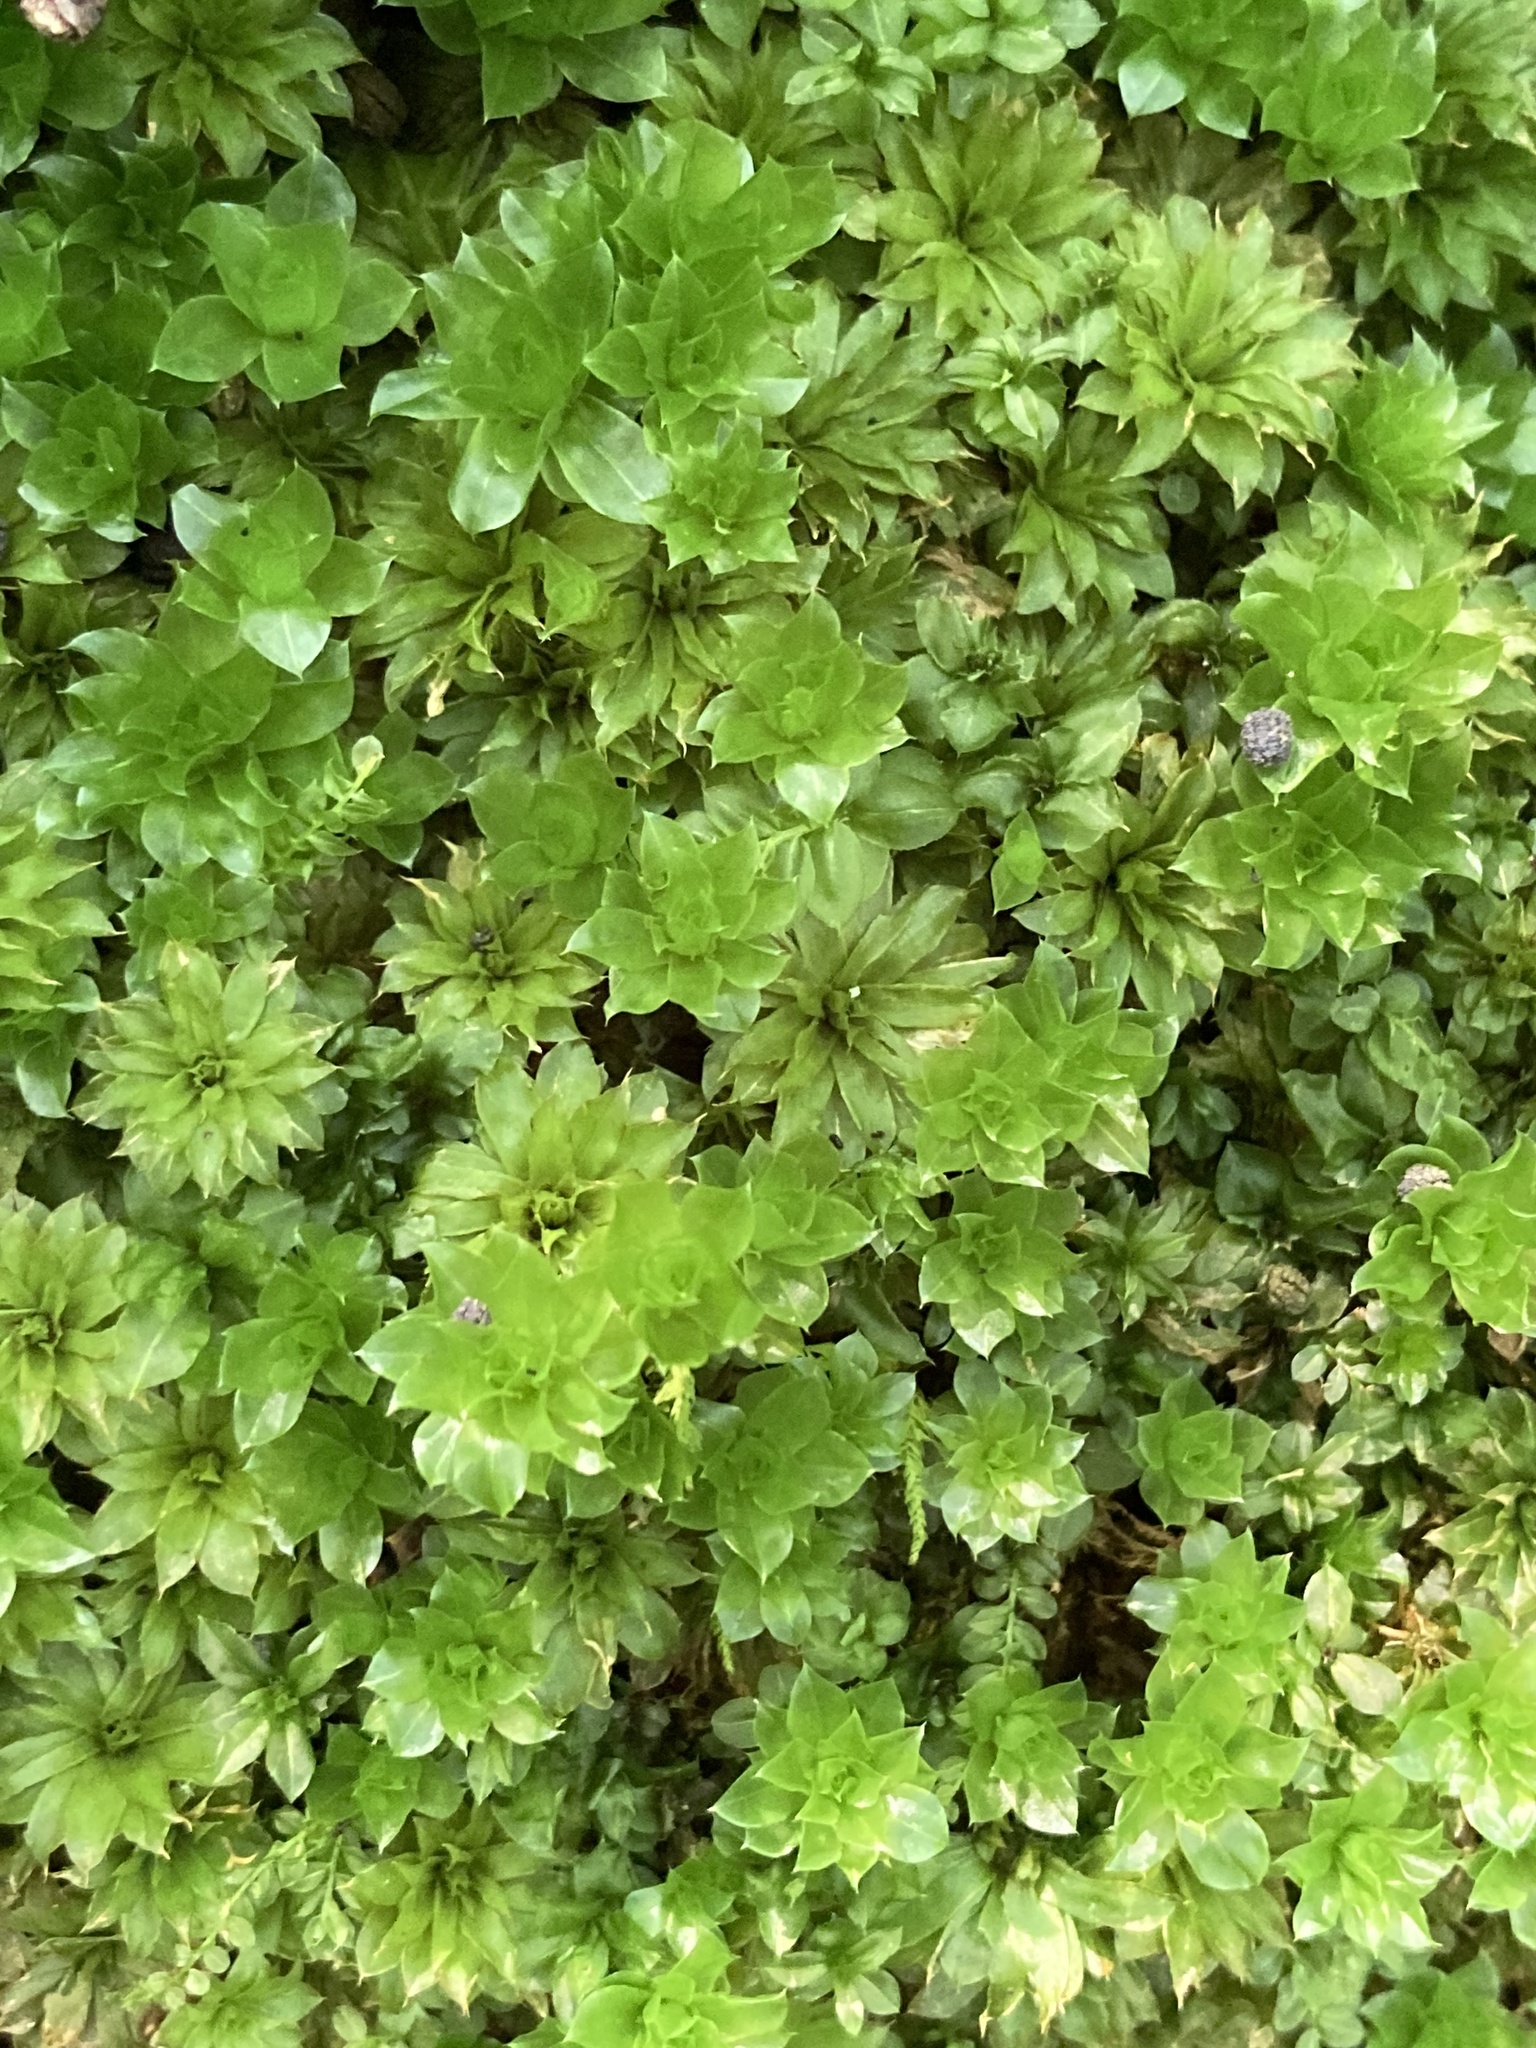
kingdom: Plantae
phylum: Bryophyta
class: Bryopsida
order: Bryales
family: Bryaceae
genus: Rhodobryum
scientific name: Rhodobryum ontariense
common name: Ontario rhodobryum moss
